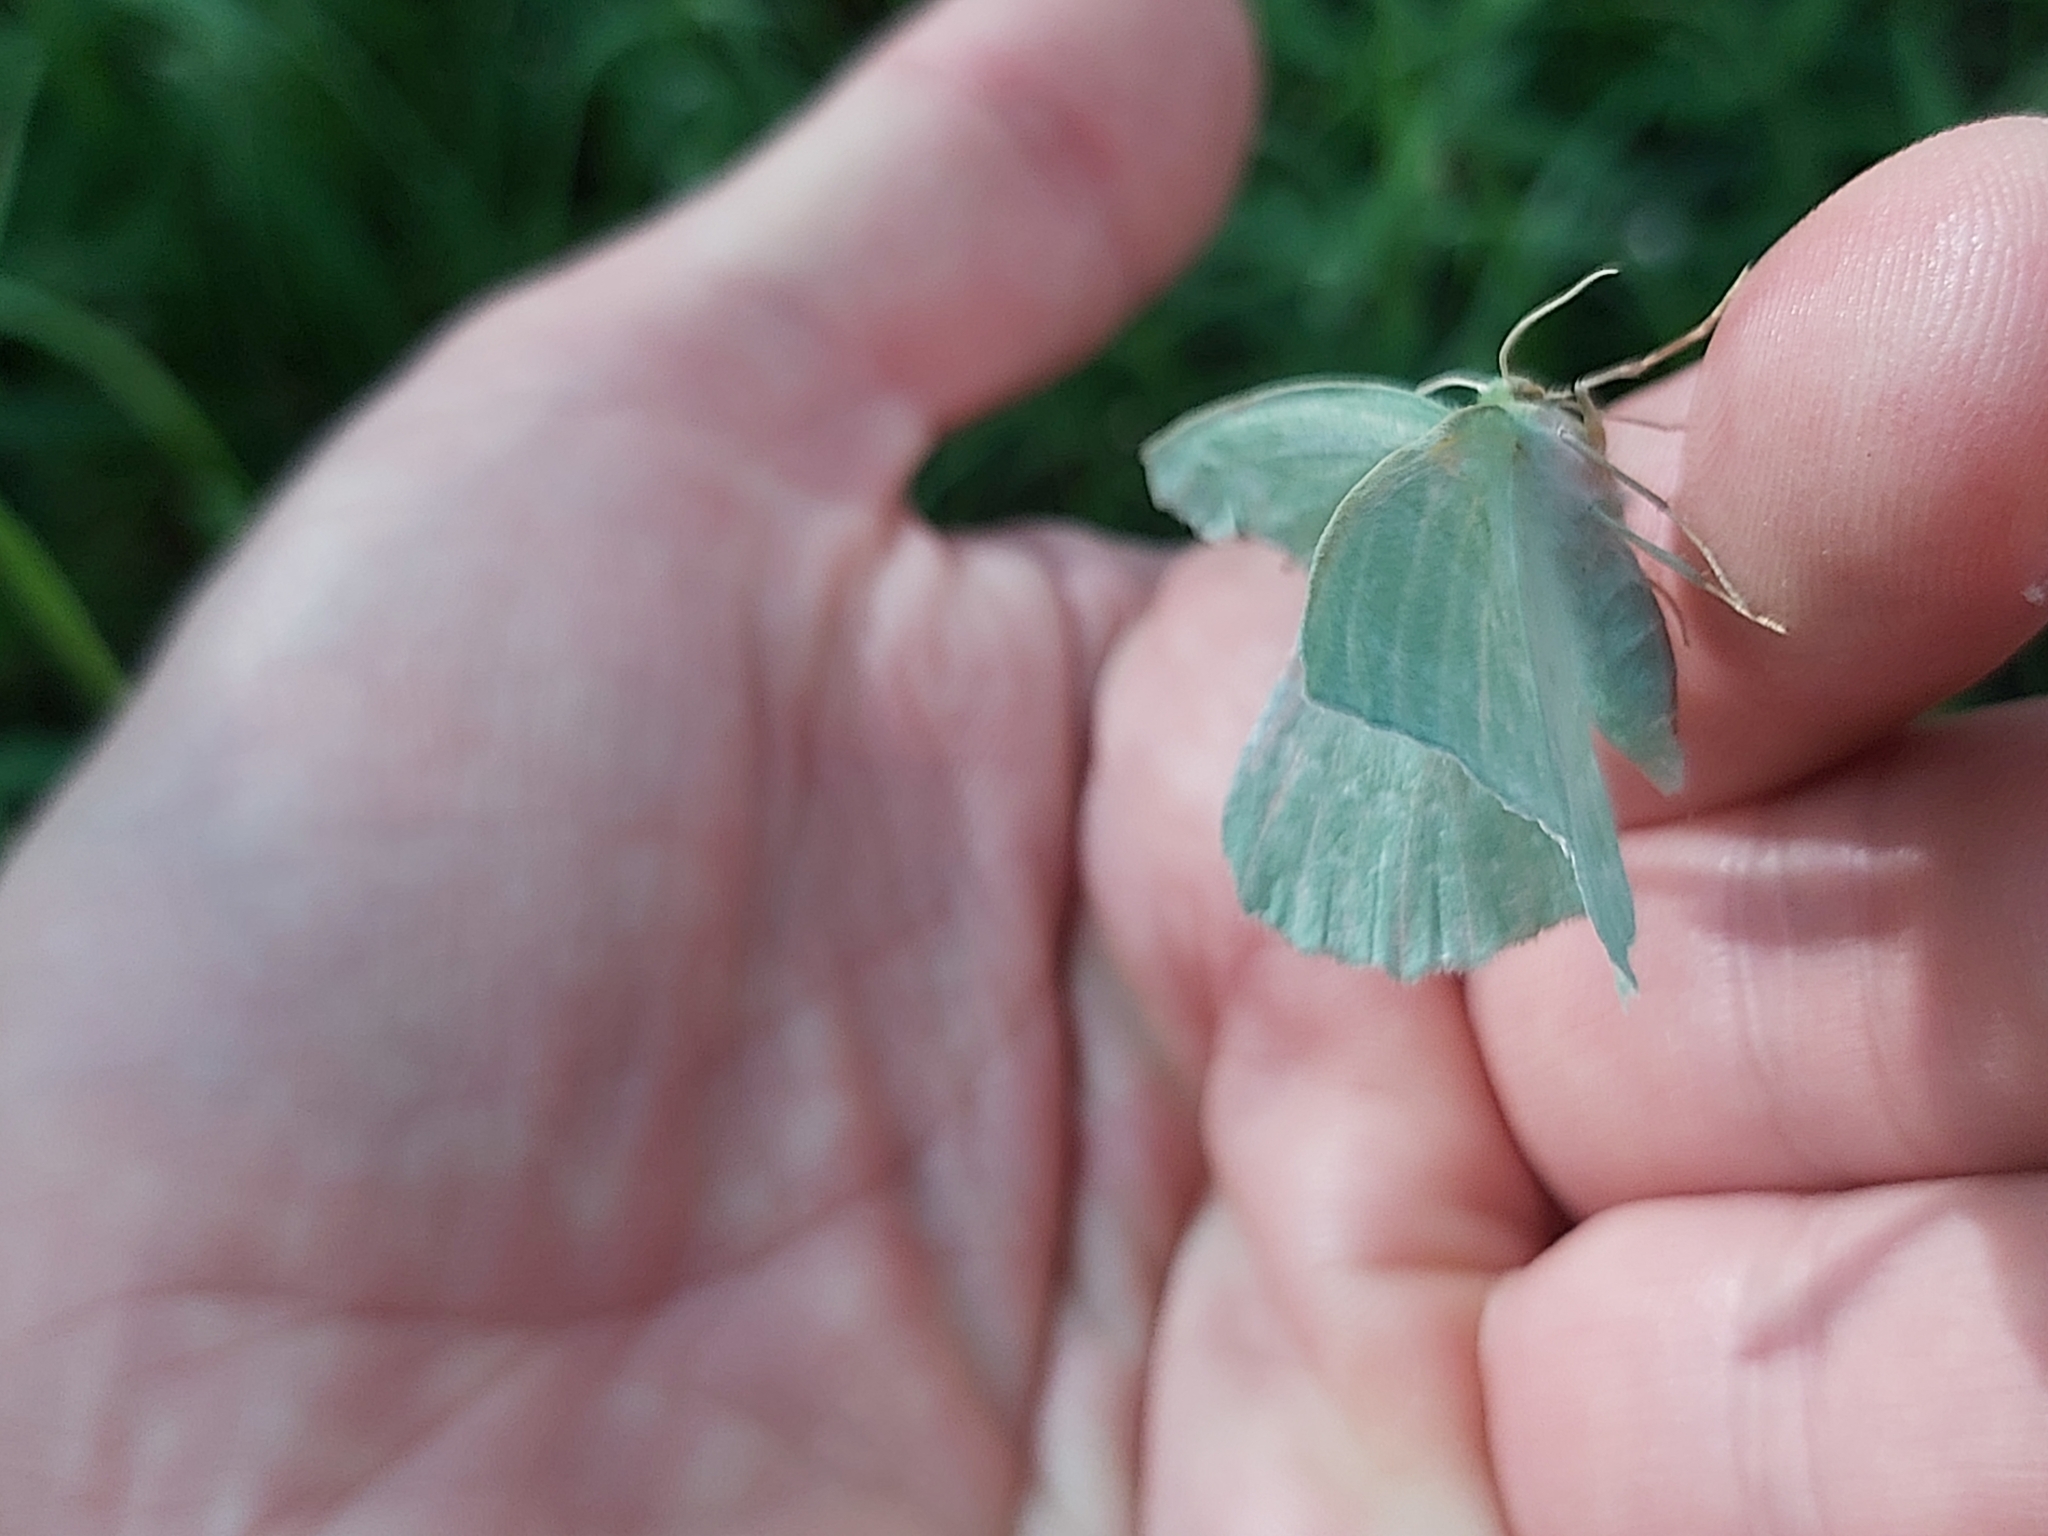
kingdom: Animalia
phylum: Arthropoda
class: Insecta
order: Lepidoptera
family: Geometridae
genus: Geometra
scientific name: Geometra papilionaria
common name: Large emerald
